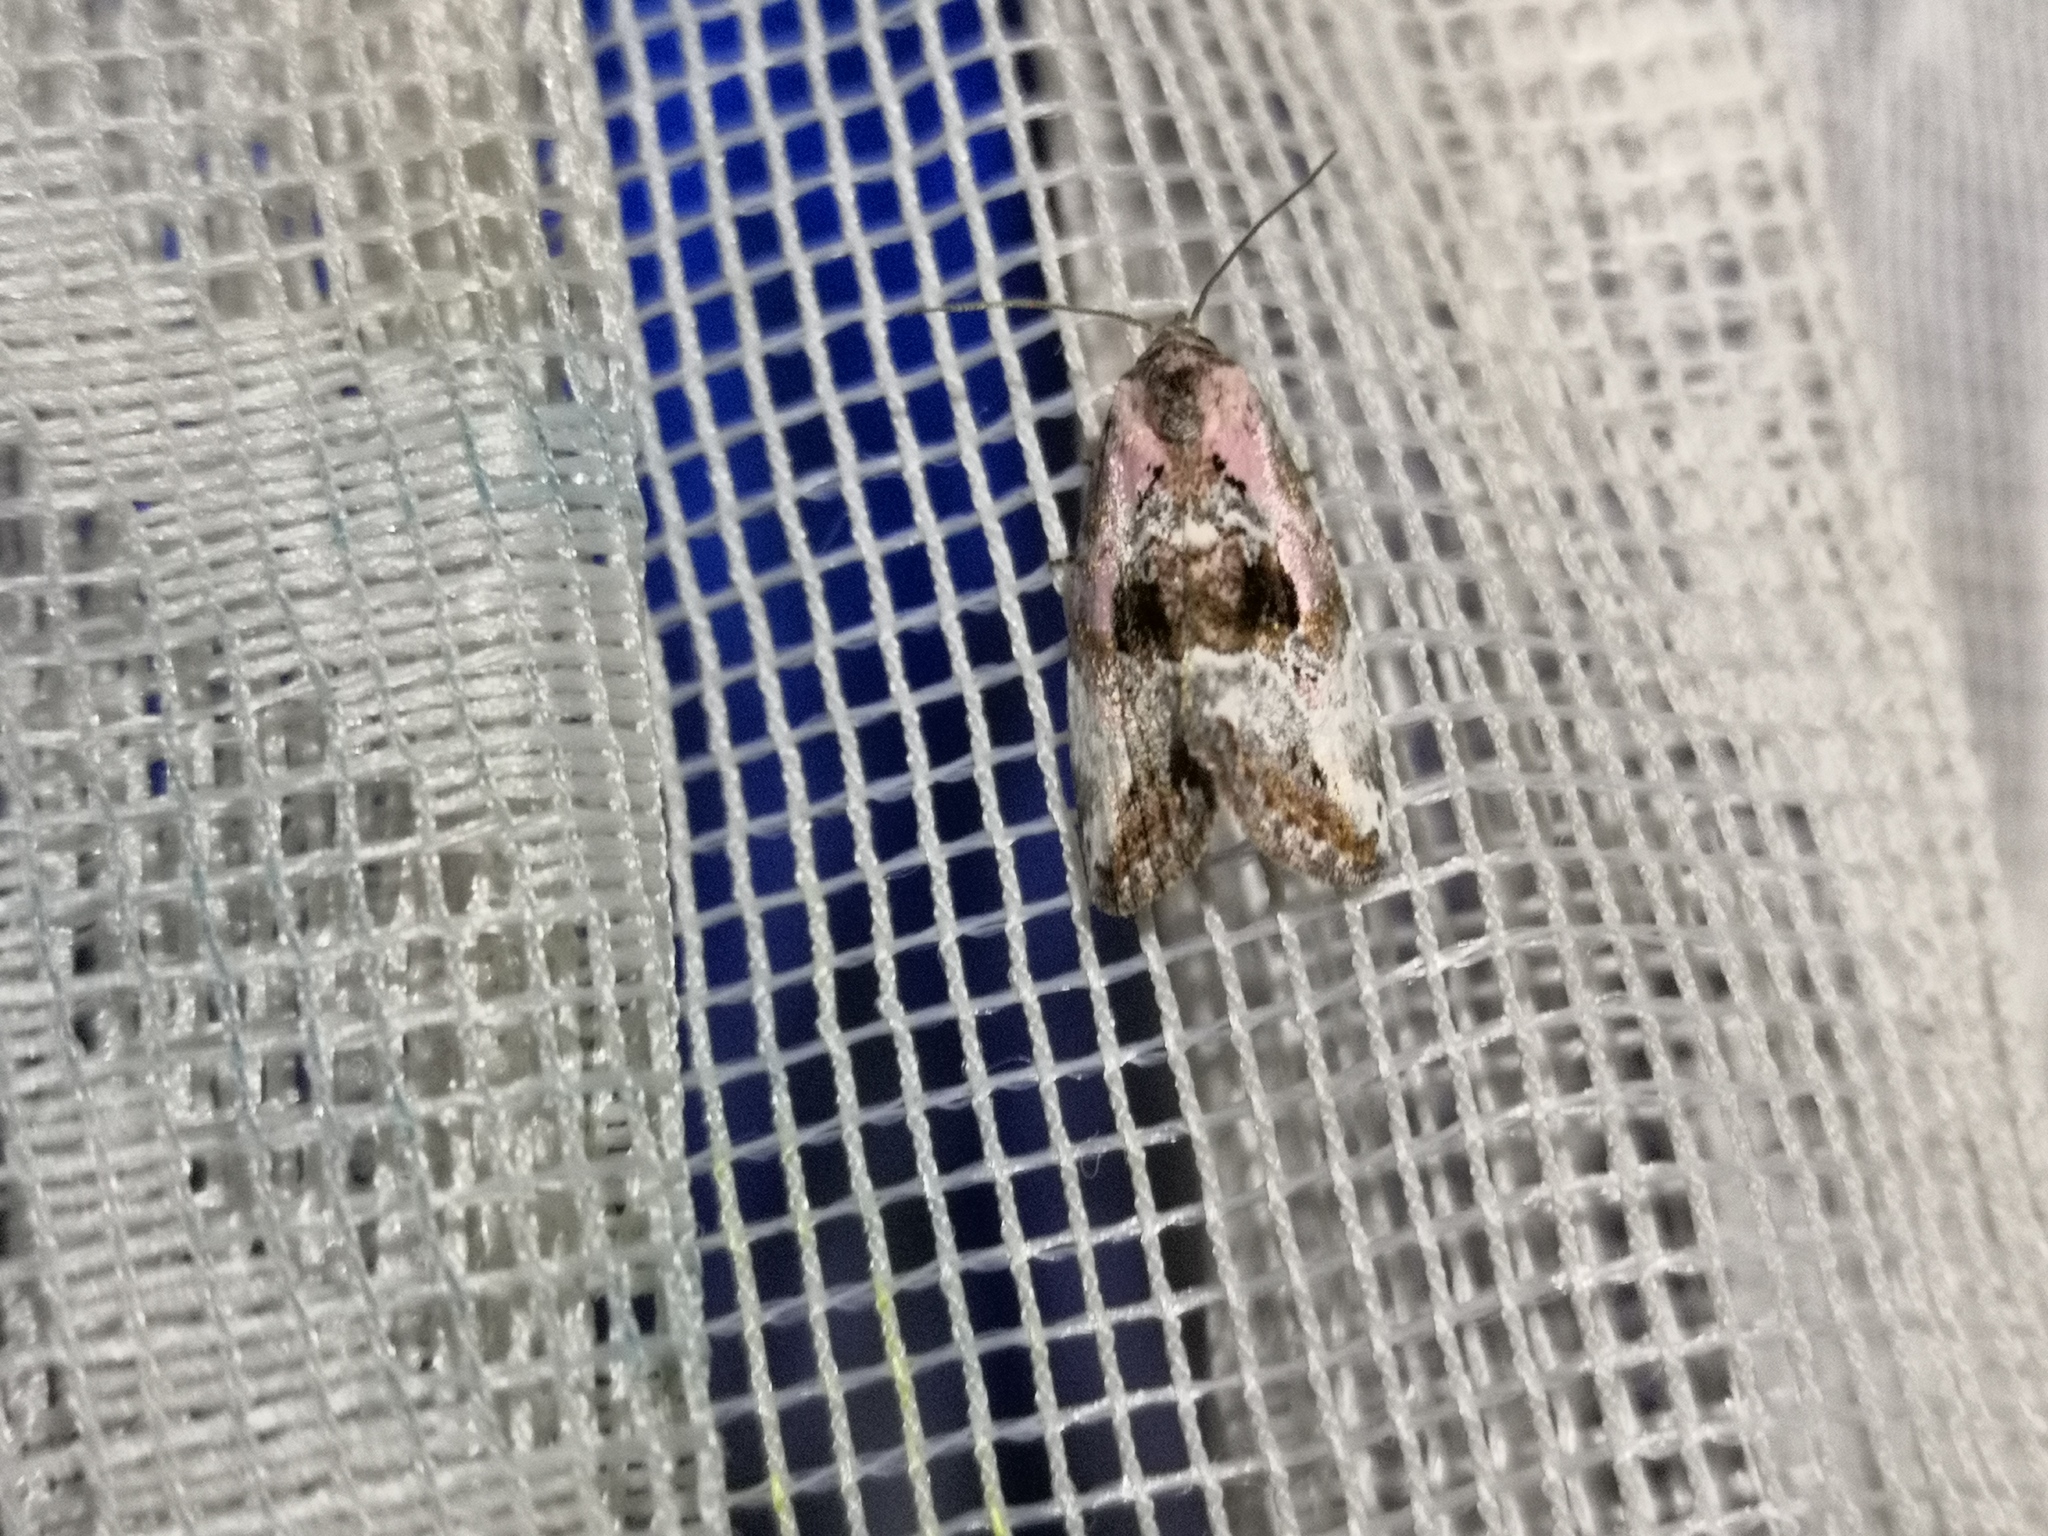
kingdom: Animalia
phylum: Arthropoda
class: Insecta
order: Lepidoptera
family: Noctuidae
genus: Elaphria
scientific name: Elaphria venustula
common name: Rosy marbled
